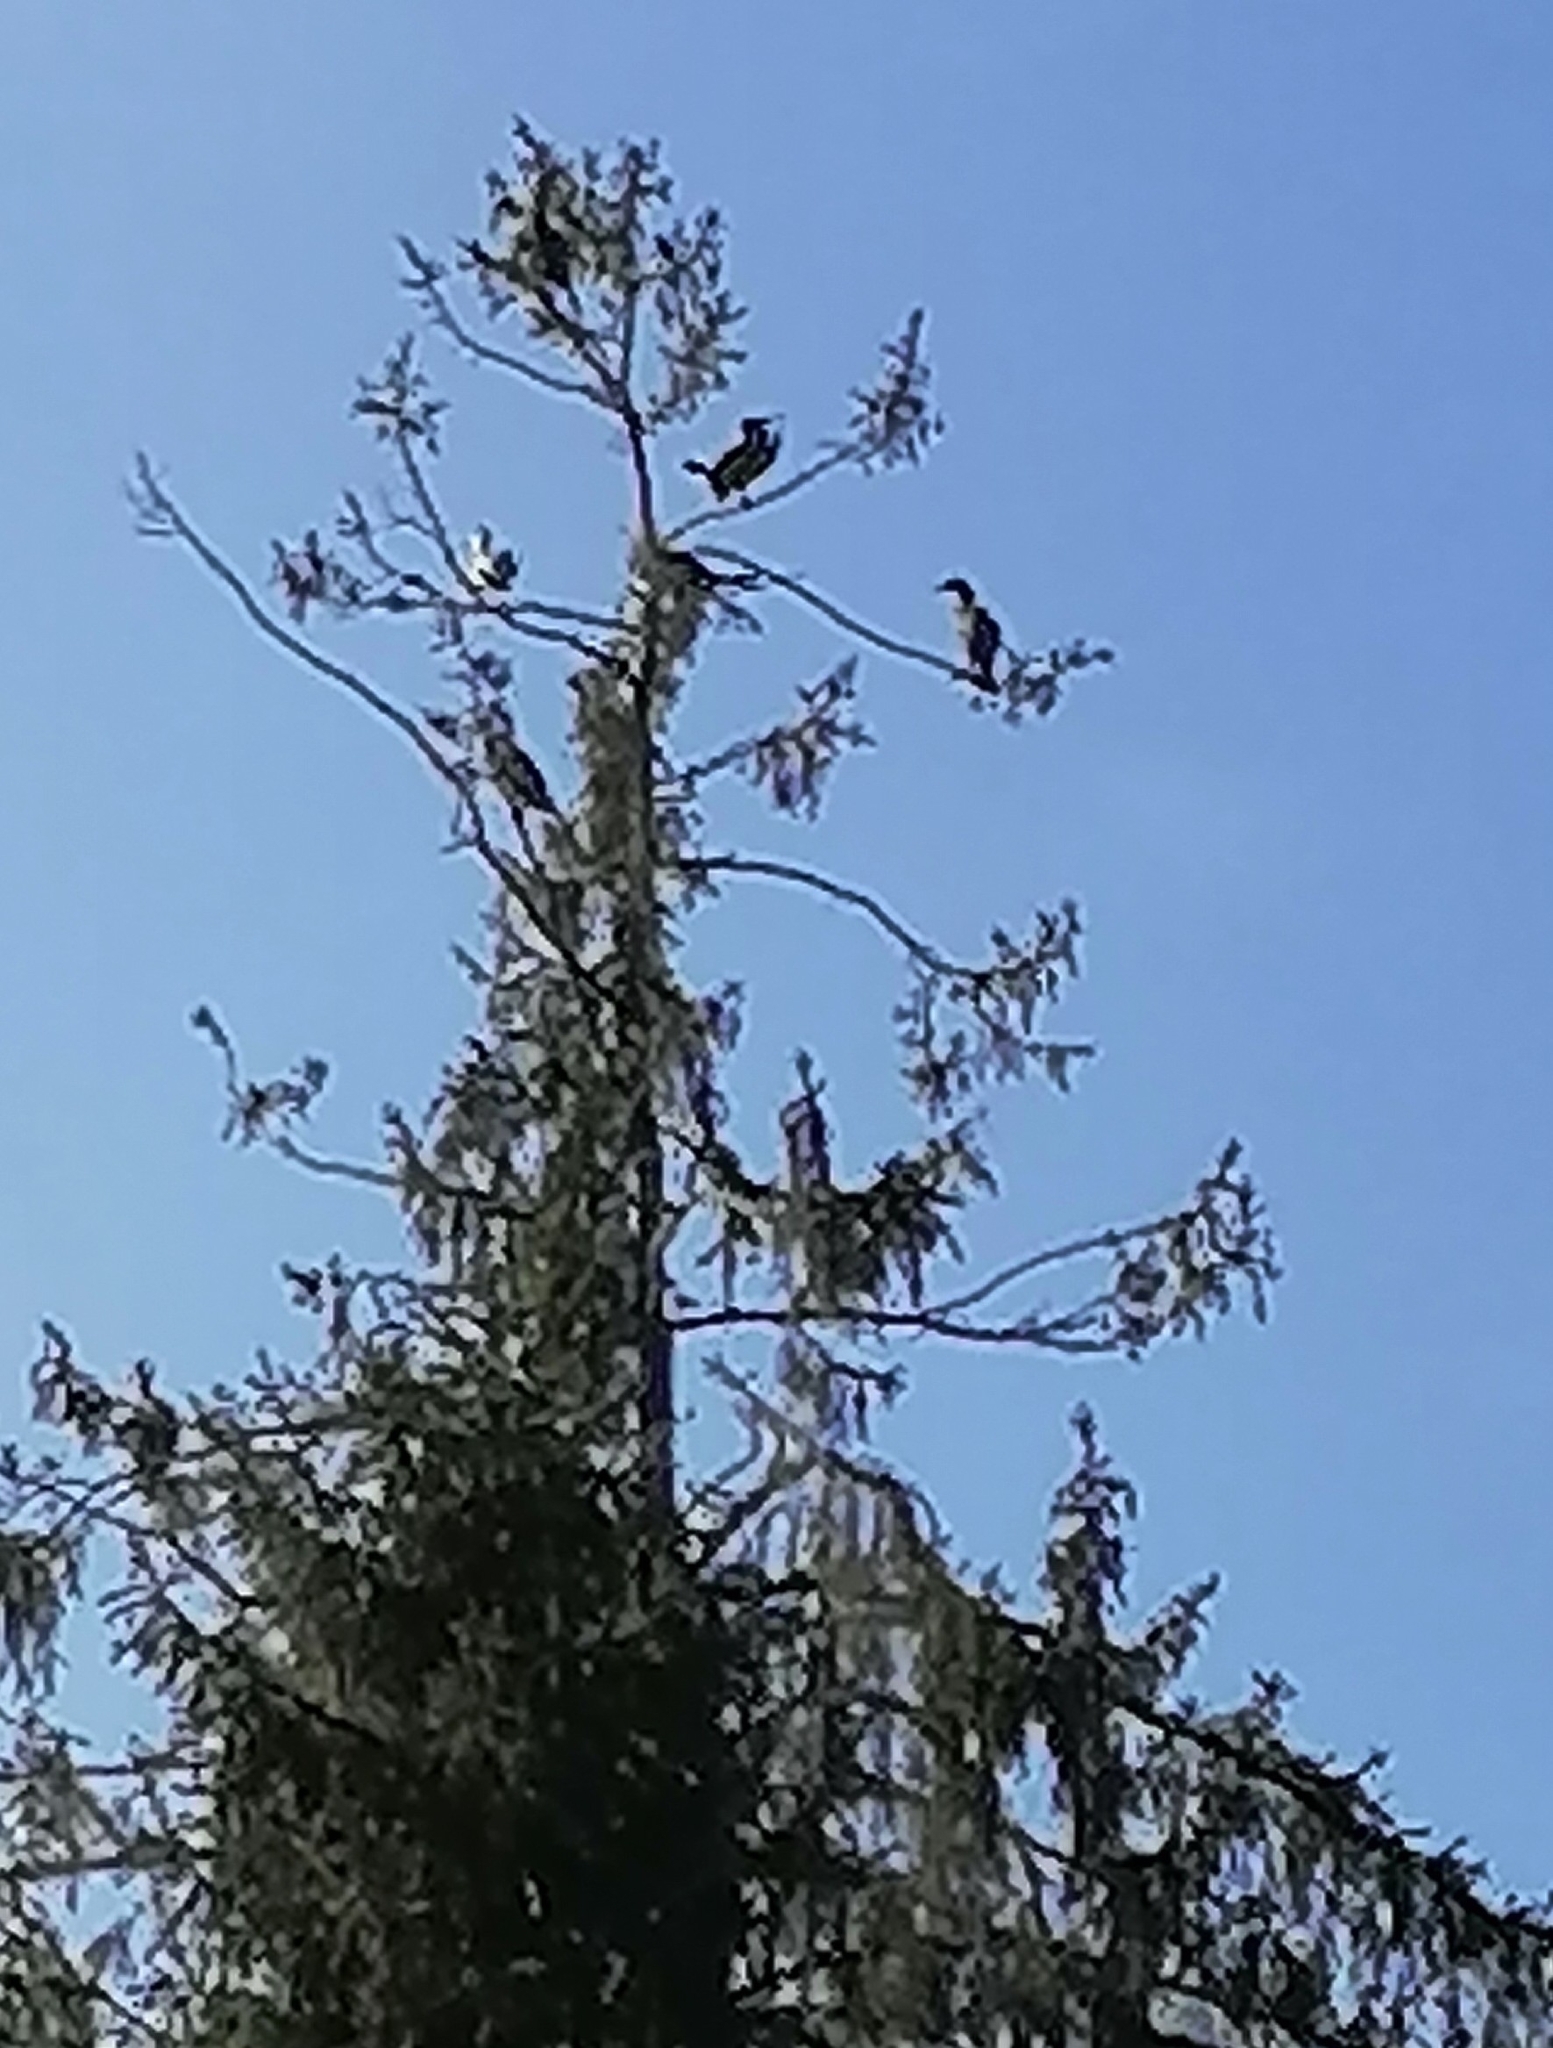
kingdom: Animalia
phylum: Chordata
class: Aves
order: Suliformes
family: Phalacrocoracidae
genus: Phalacrocorax
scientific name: Phalacrocorax carbo
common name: Great cormorant
